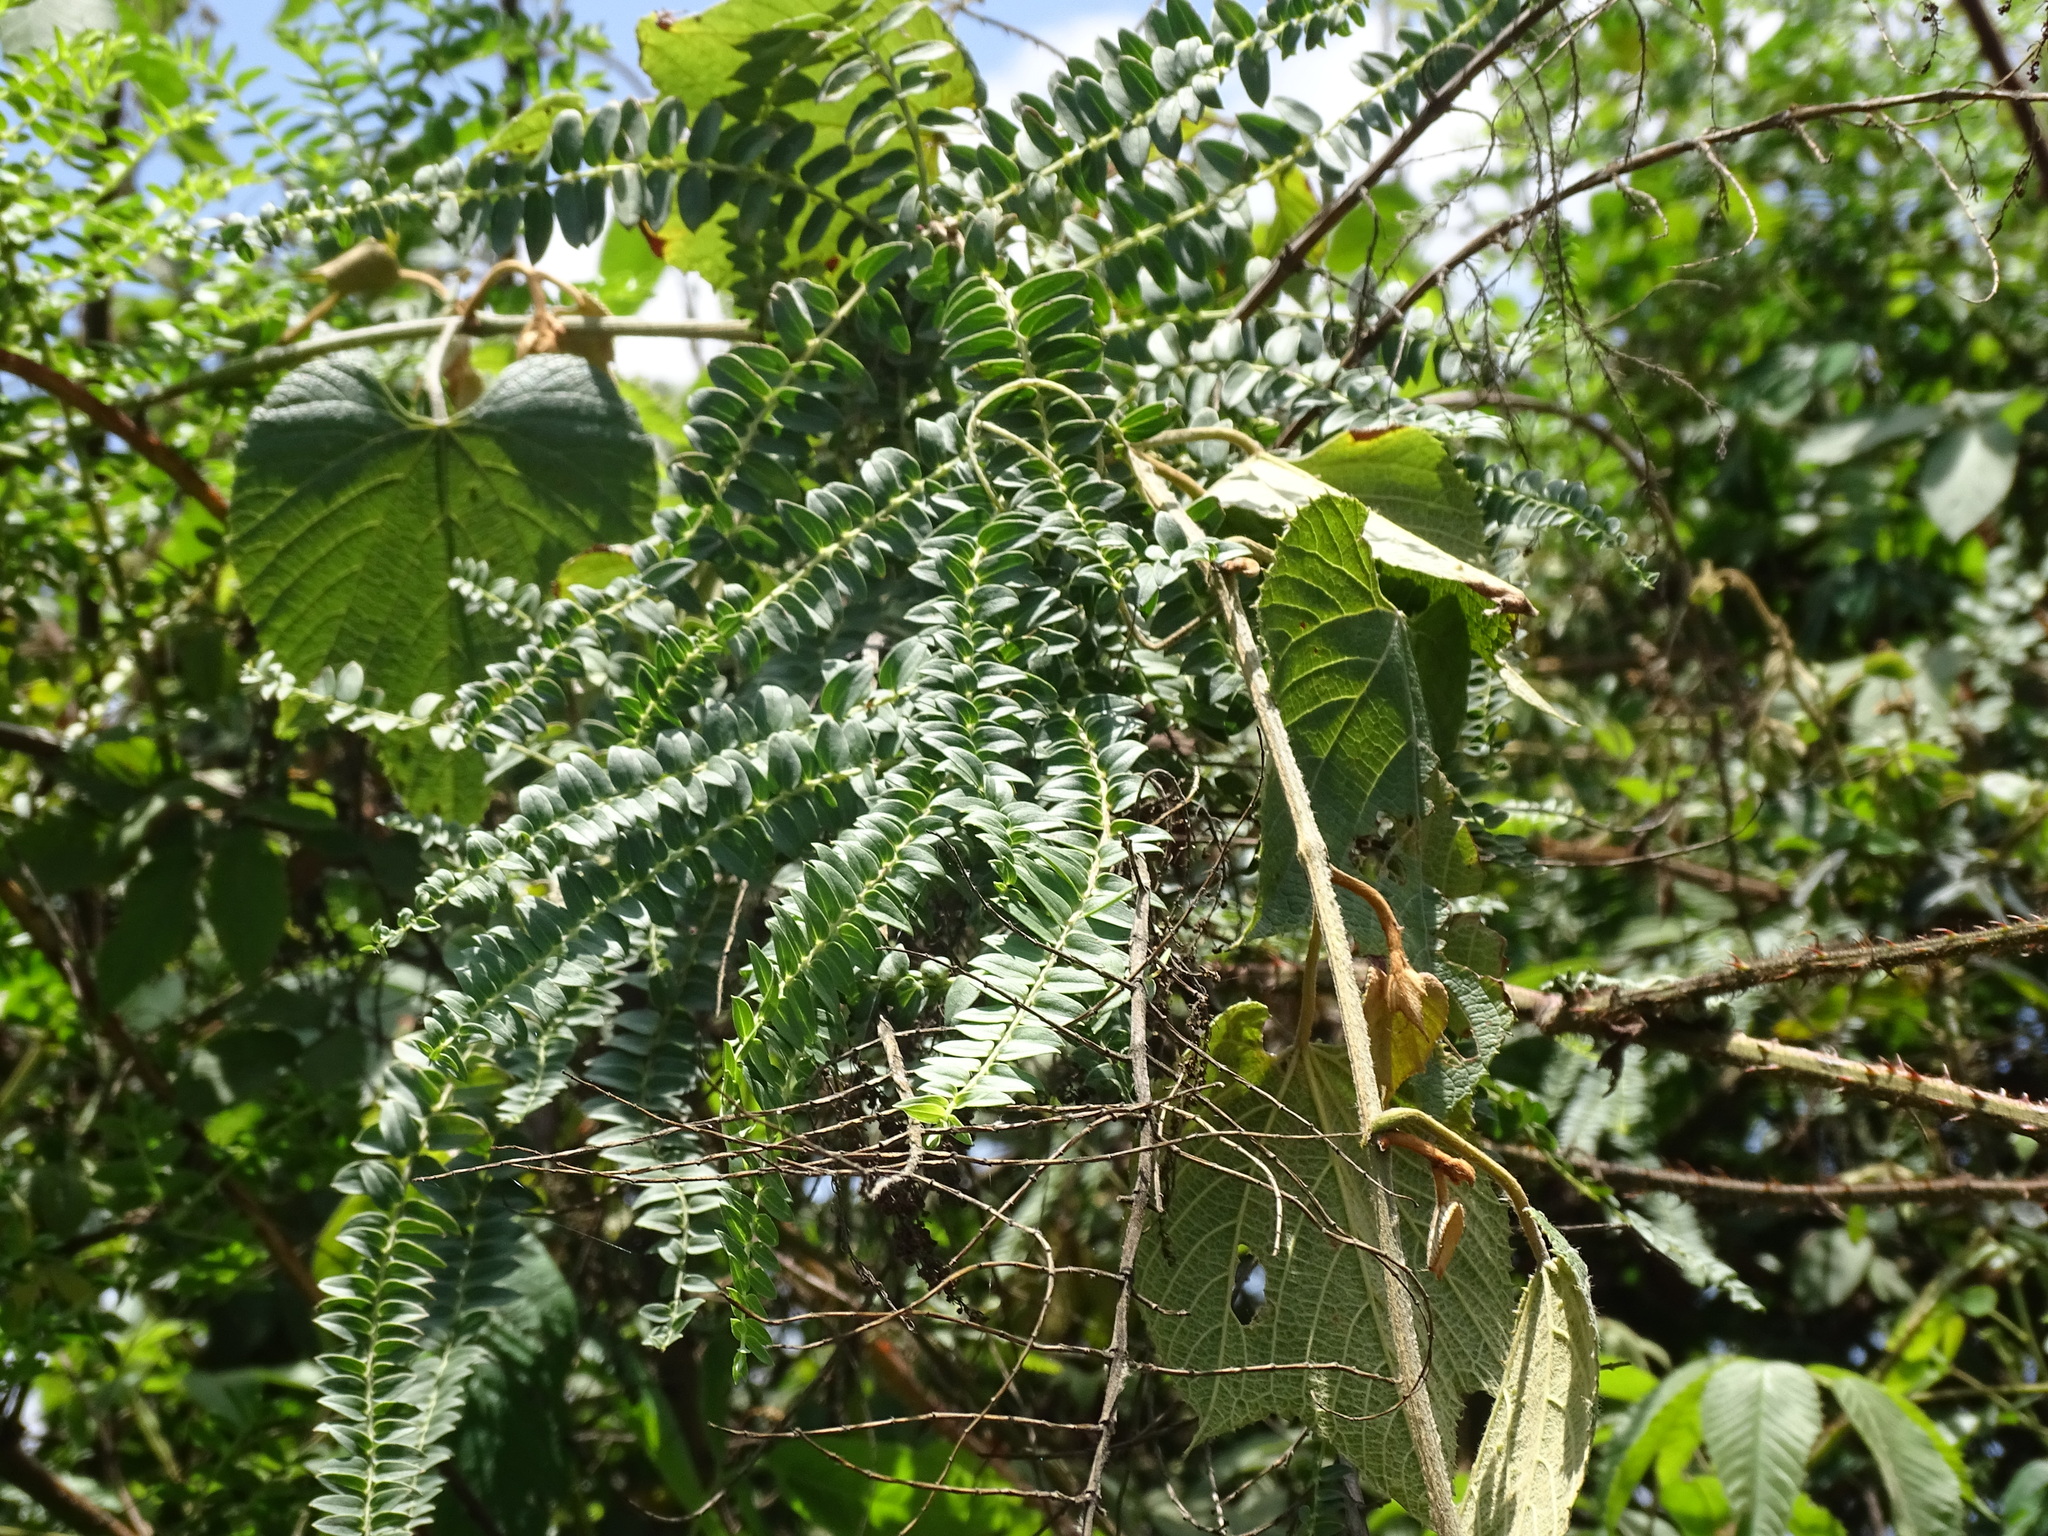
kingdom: Plantae
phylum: Tracheophyta
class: Magnoliopsida
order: Cucurbitales
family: Coriariaceae
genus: Coriaria
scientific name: Coriaria ruscifolia
